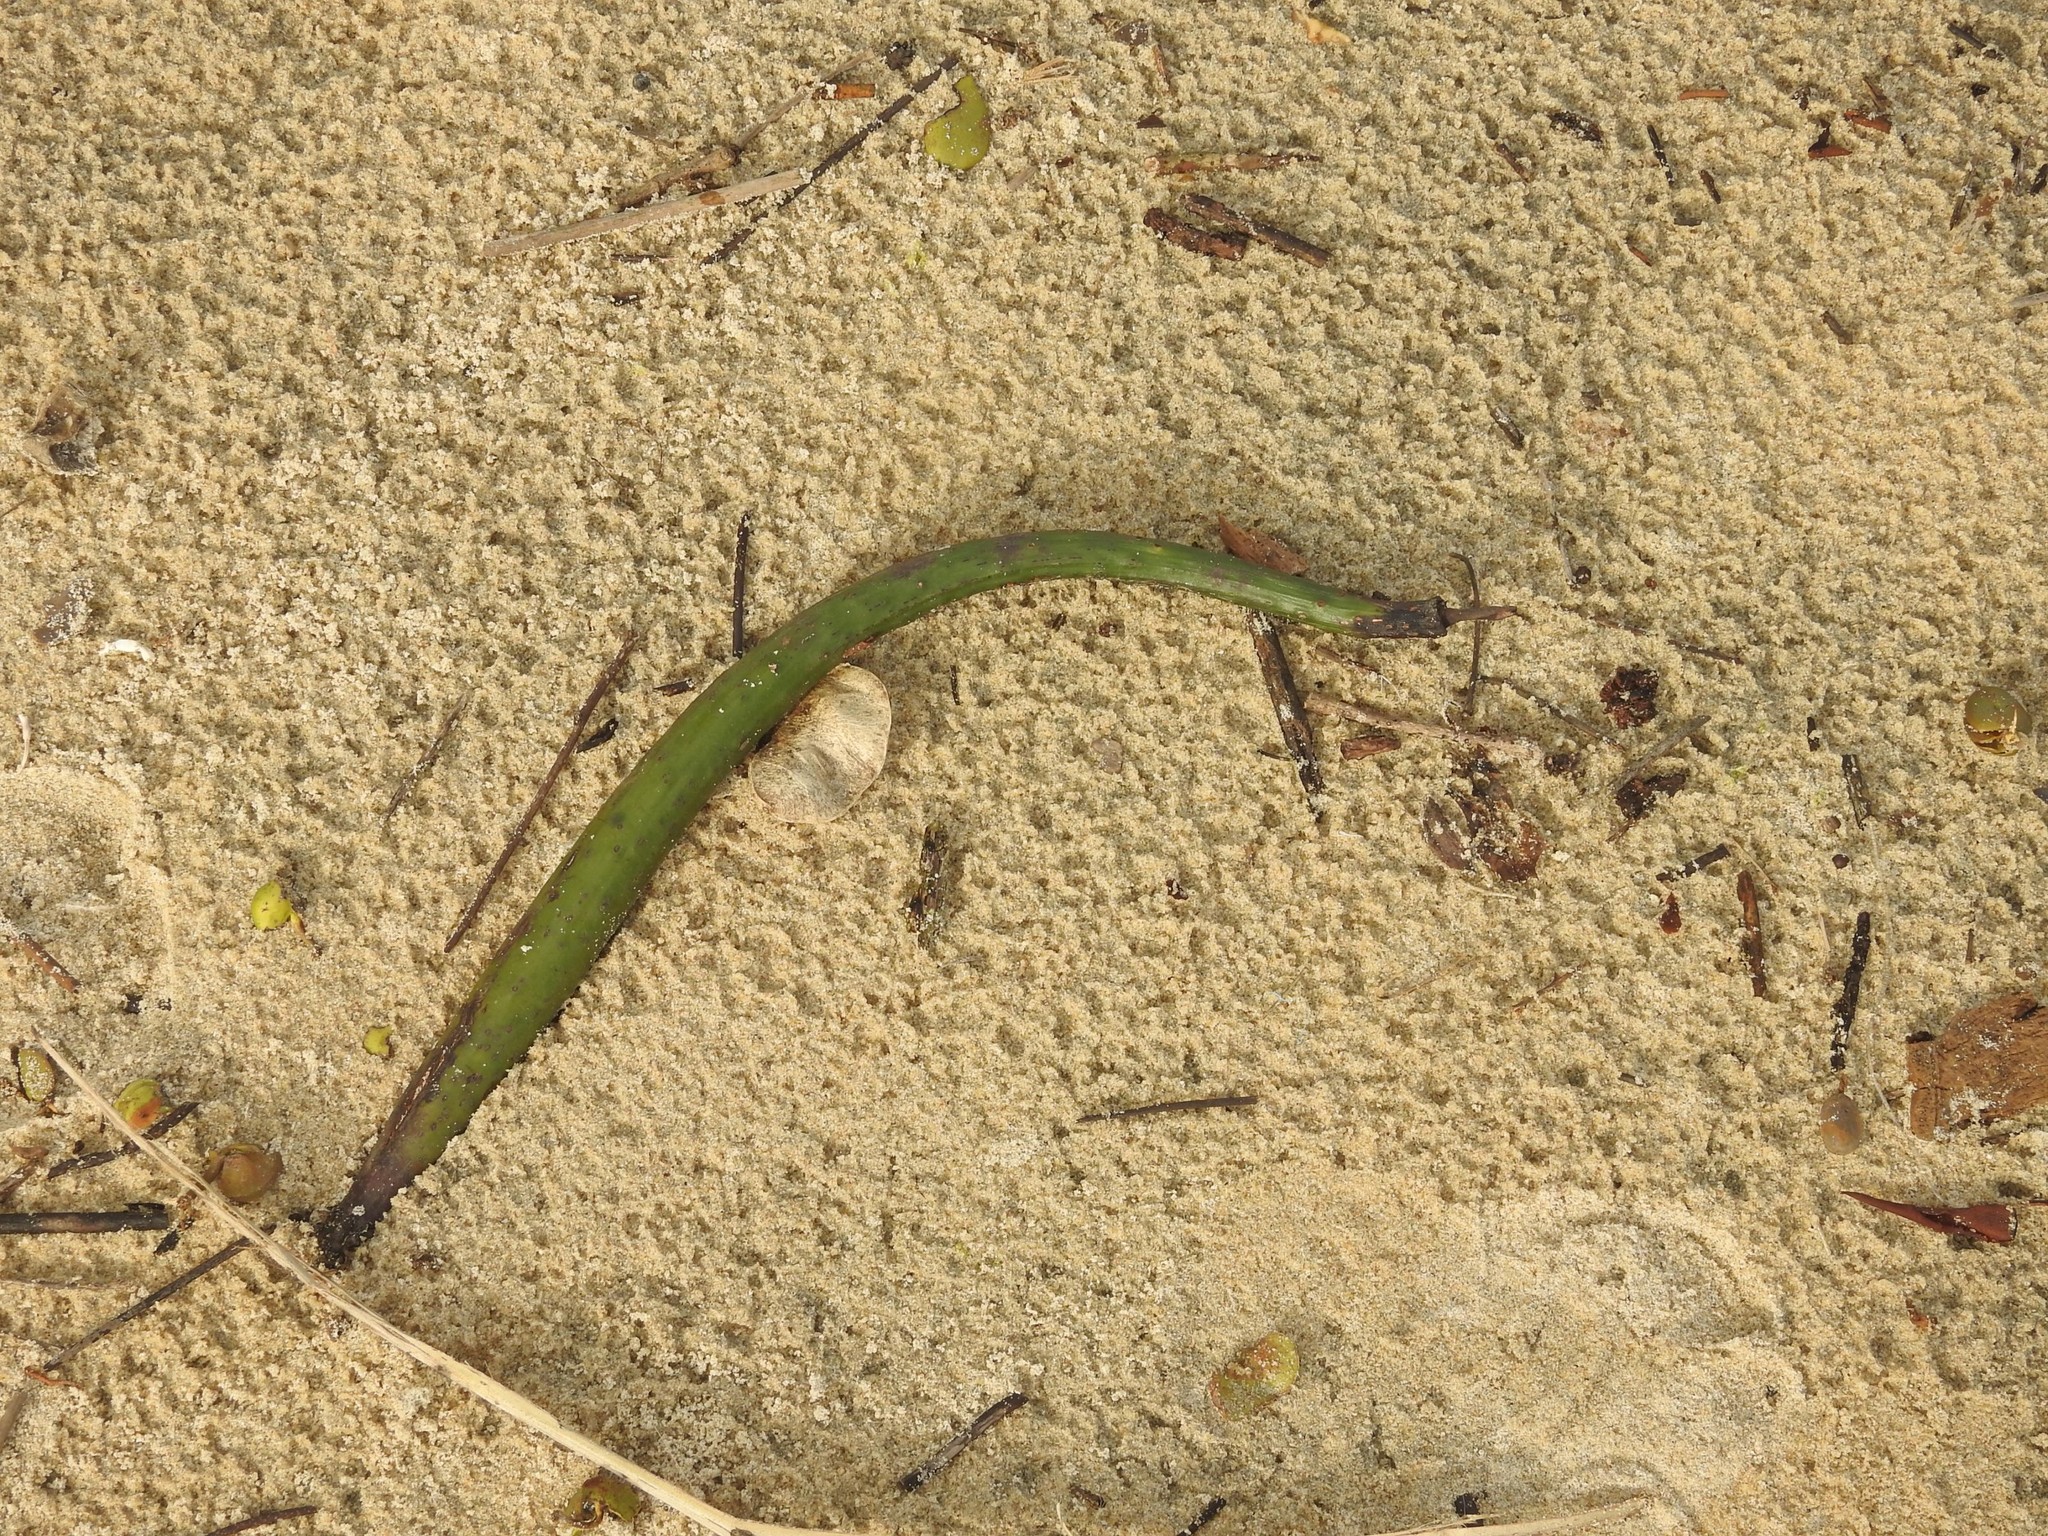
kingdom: Plantae
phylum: Tracheophyta
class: Magnoliopsida
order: Malpighiales
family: Rhizophoraceae
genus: Rhizophora
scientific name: Rhizophora mucronata
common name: Loop-root mangrove
